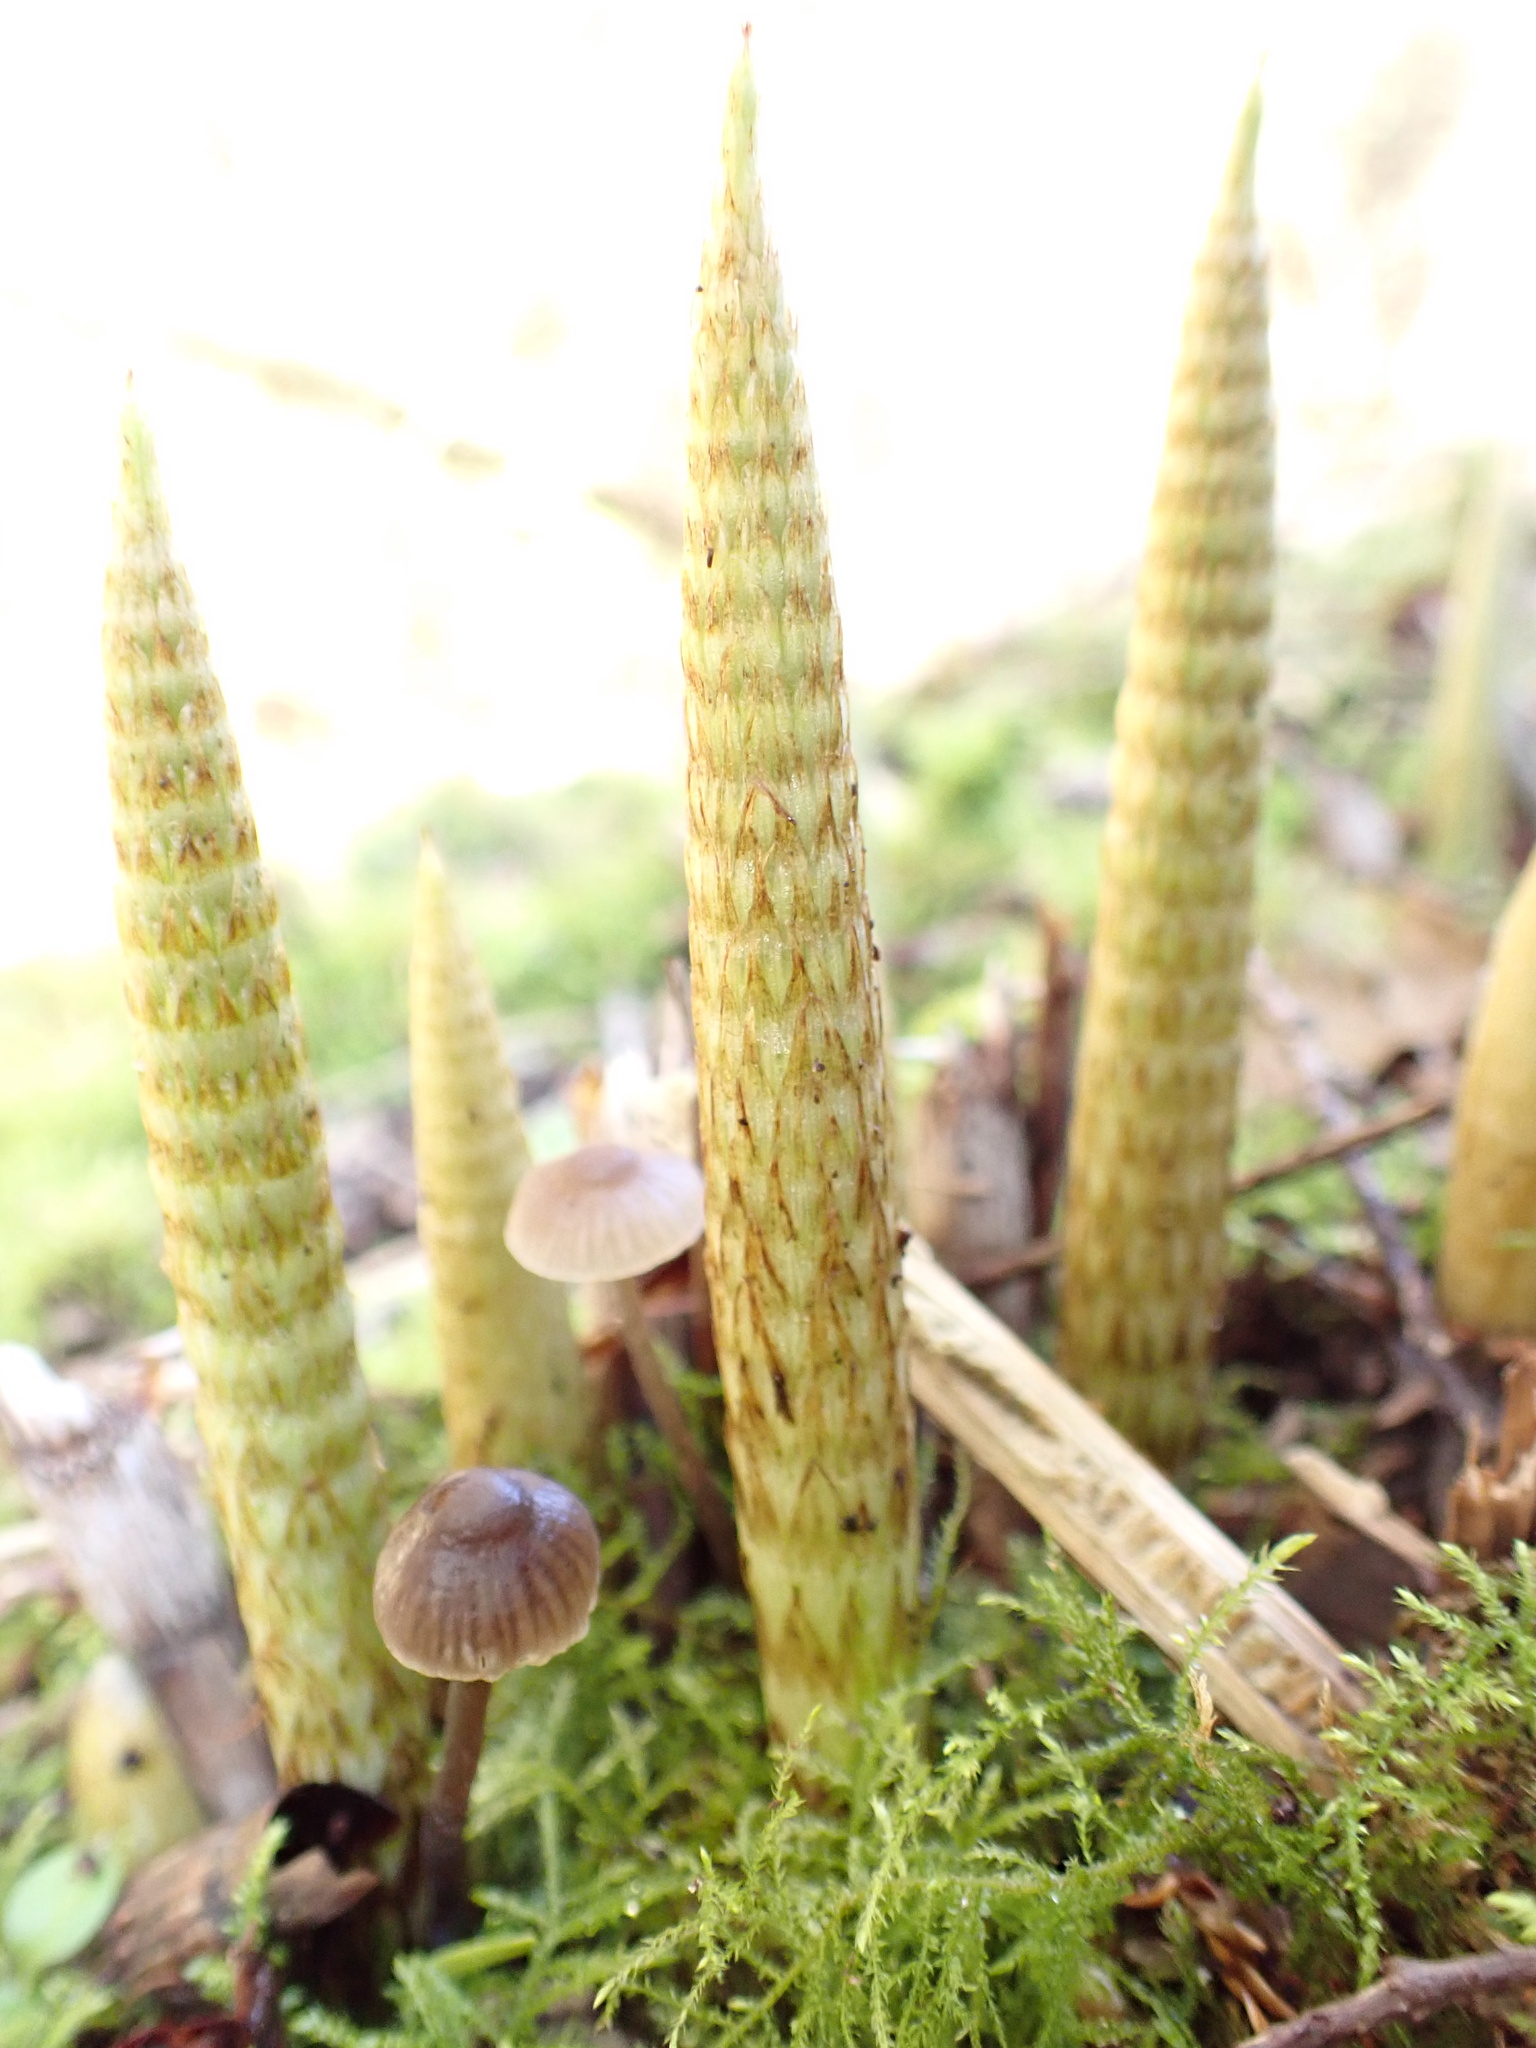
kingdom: Plantae
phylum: Tracheophyta
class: Polypodiopsida
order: Equisetales
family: Equisetaceae
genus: Equisetum
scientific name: Equisetum braunii
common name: Braun's horsetail
